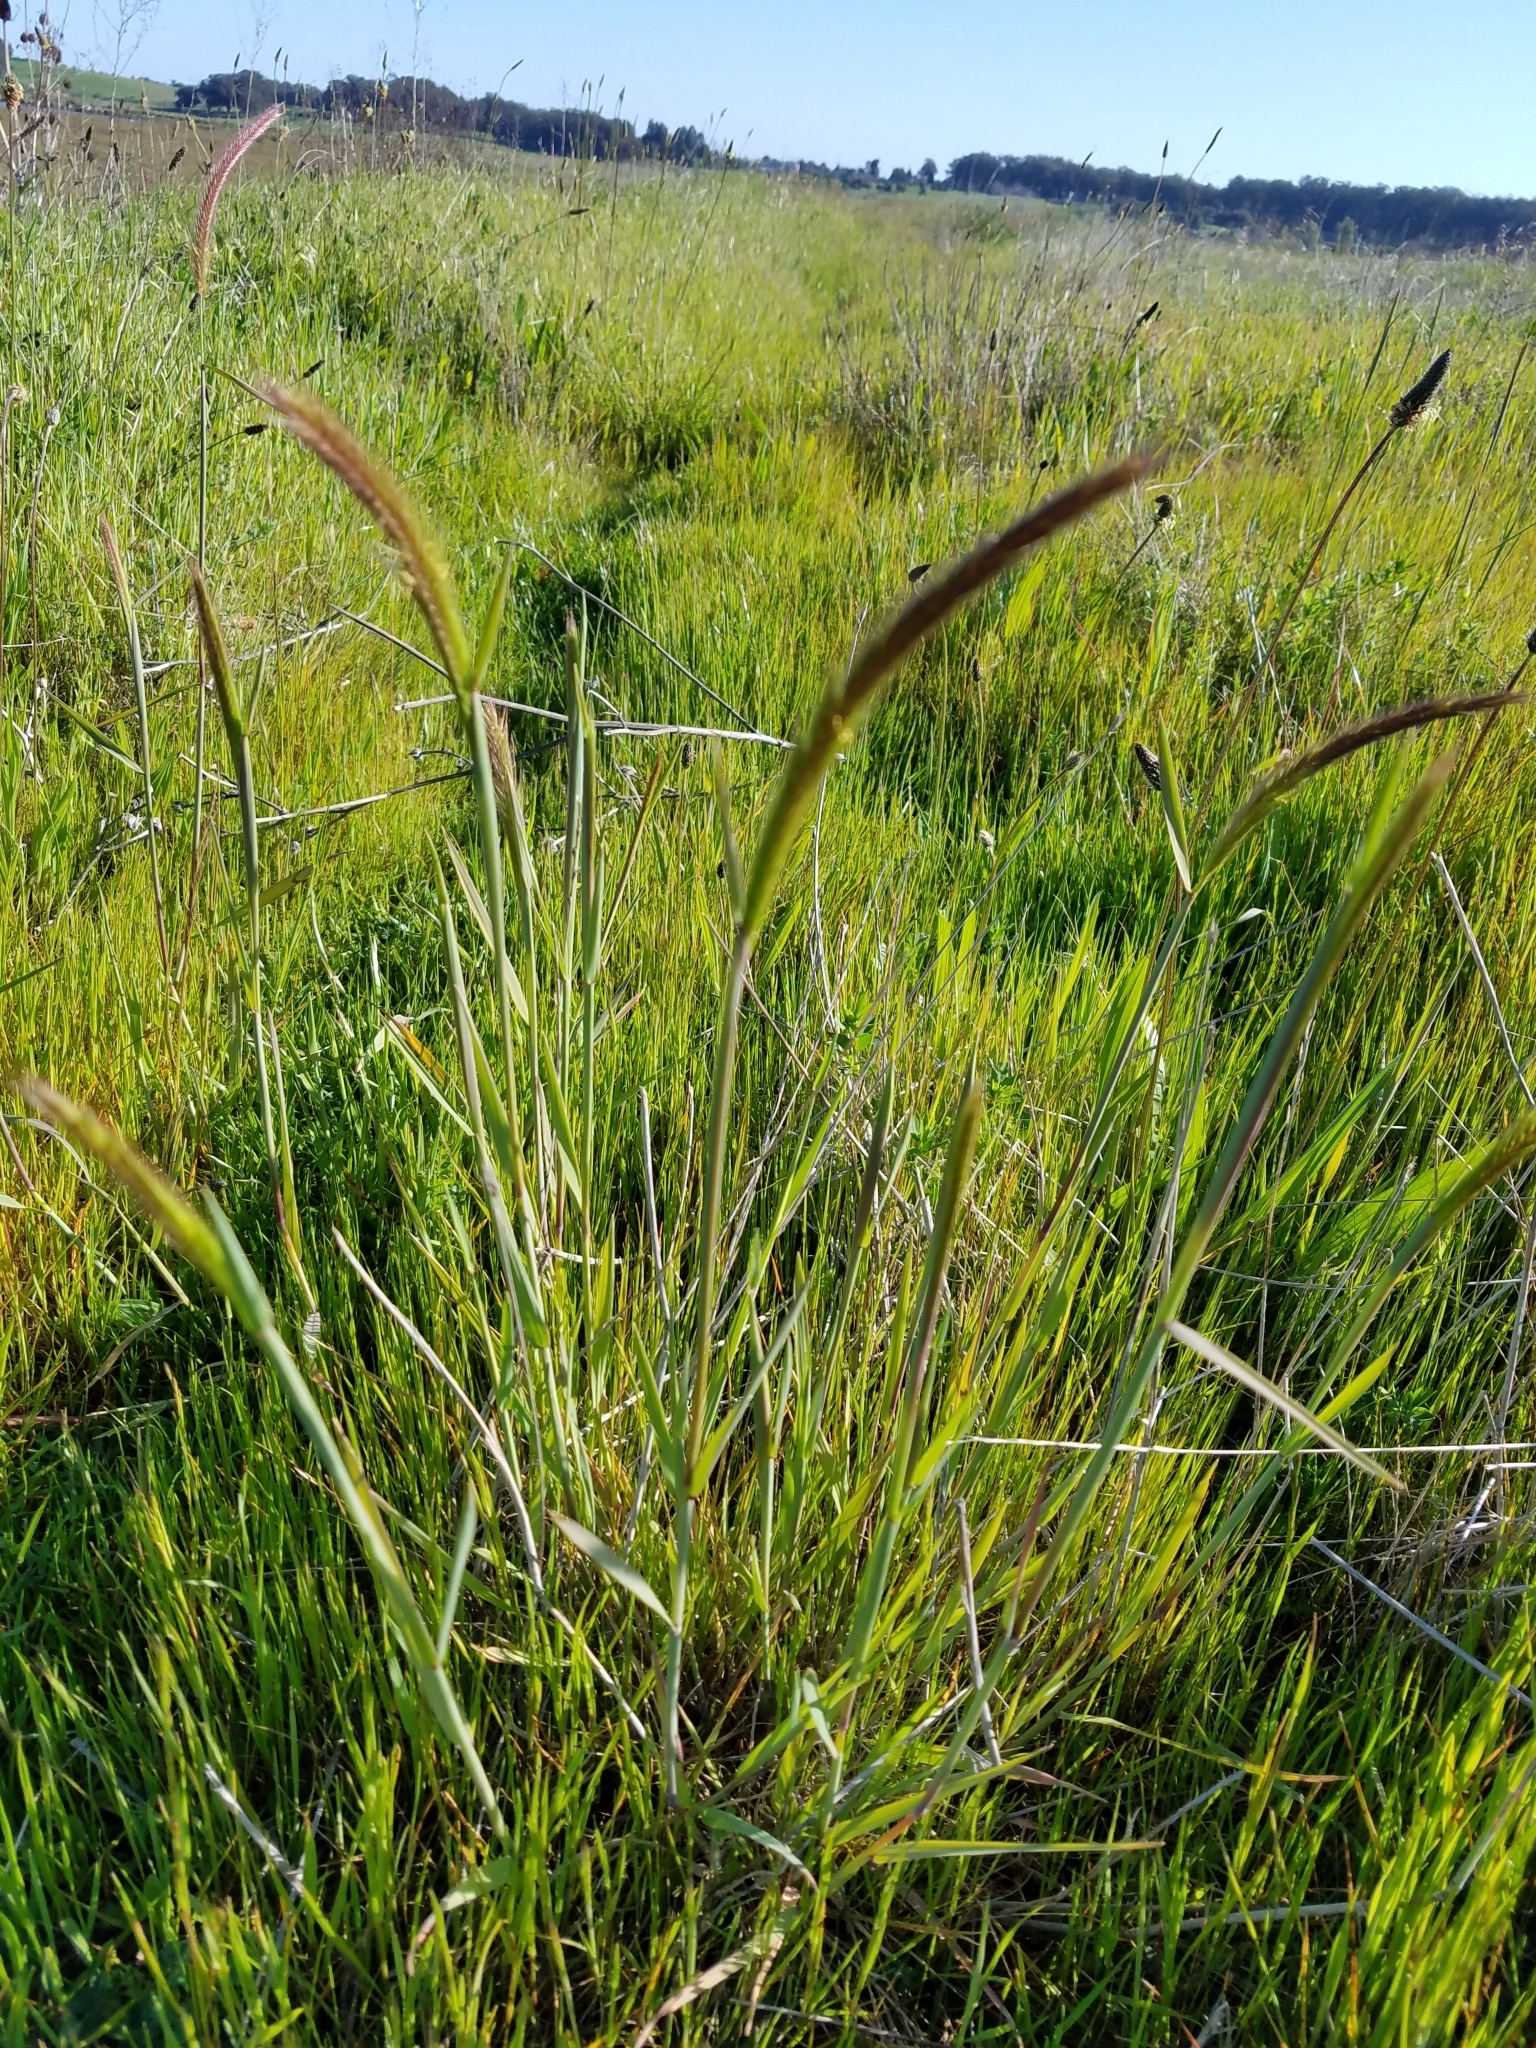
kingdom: Plantae
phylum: Tracheophyta
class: Liliopsida
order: Poales
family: Poaceae
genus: Hordeum
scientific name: Hordeum brachyantherum
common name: Meadow barley
